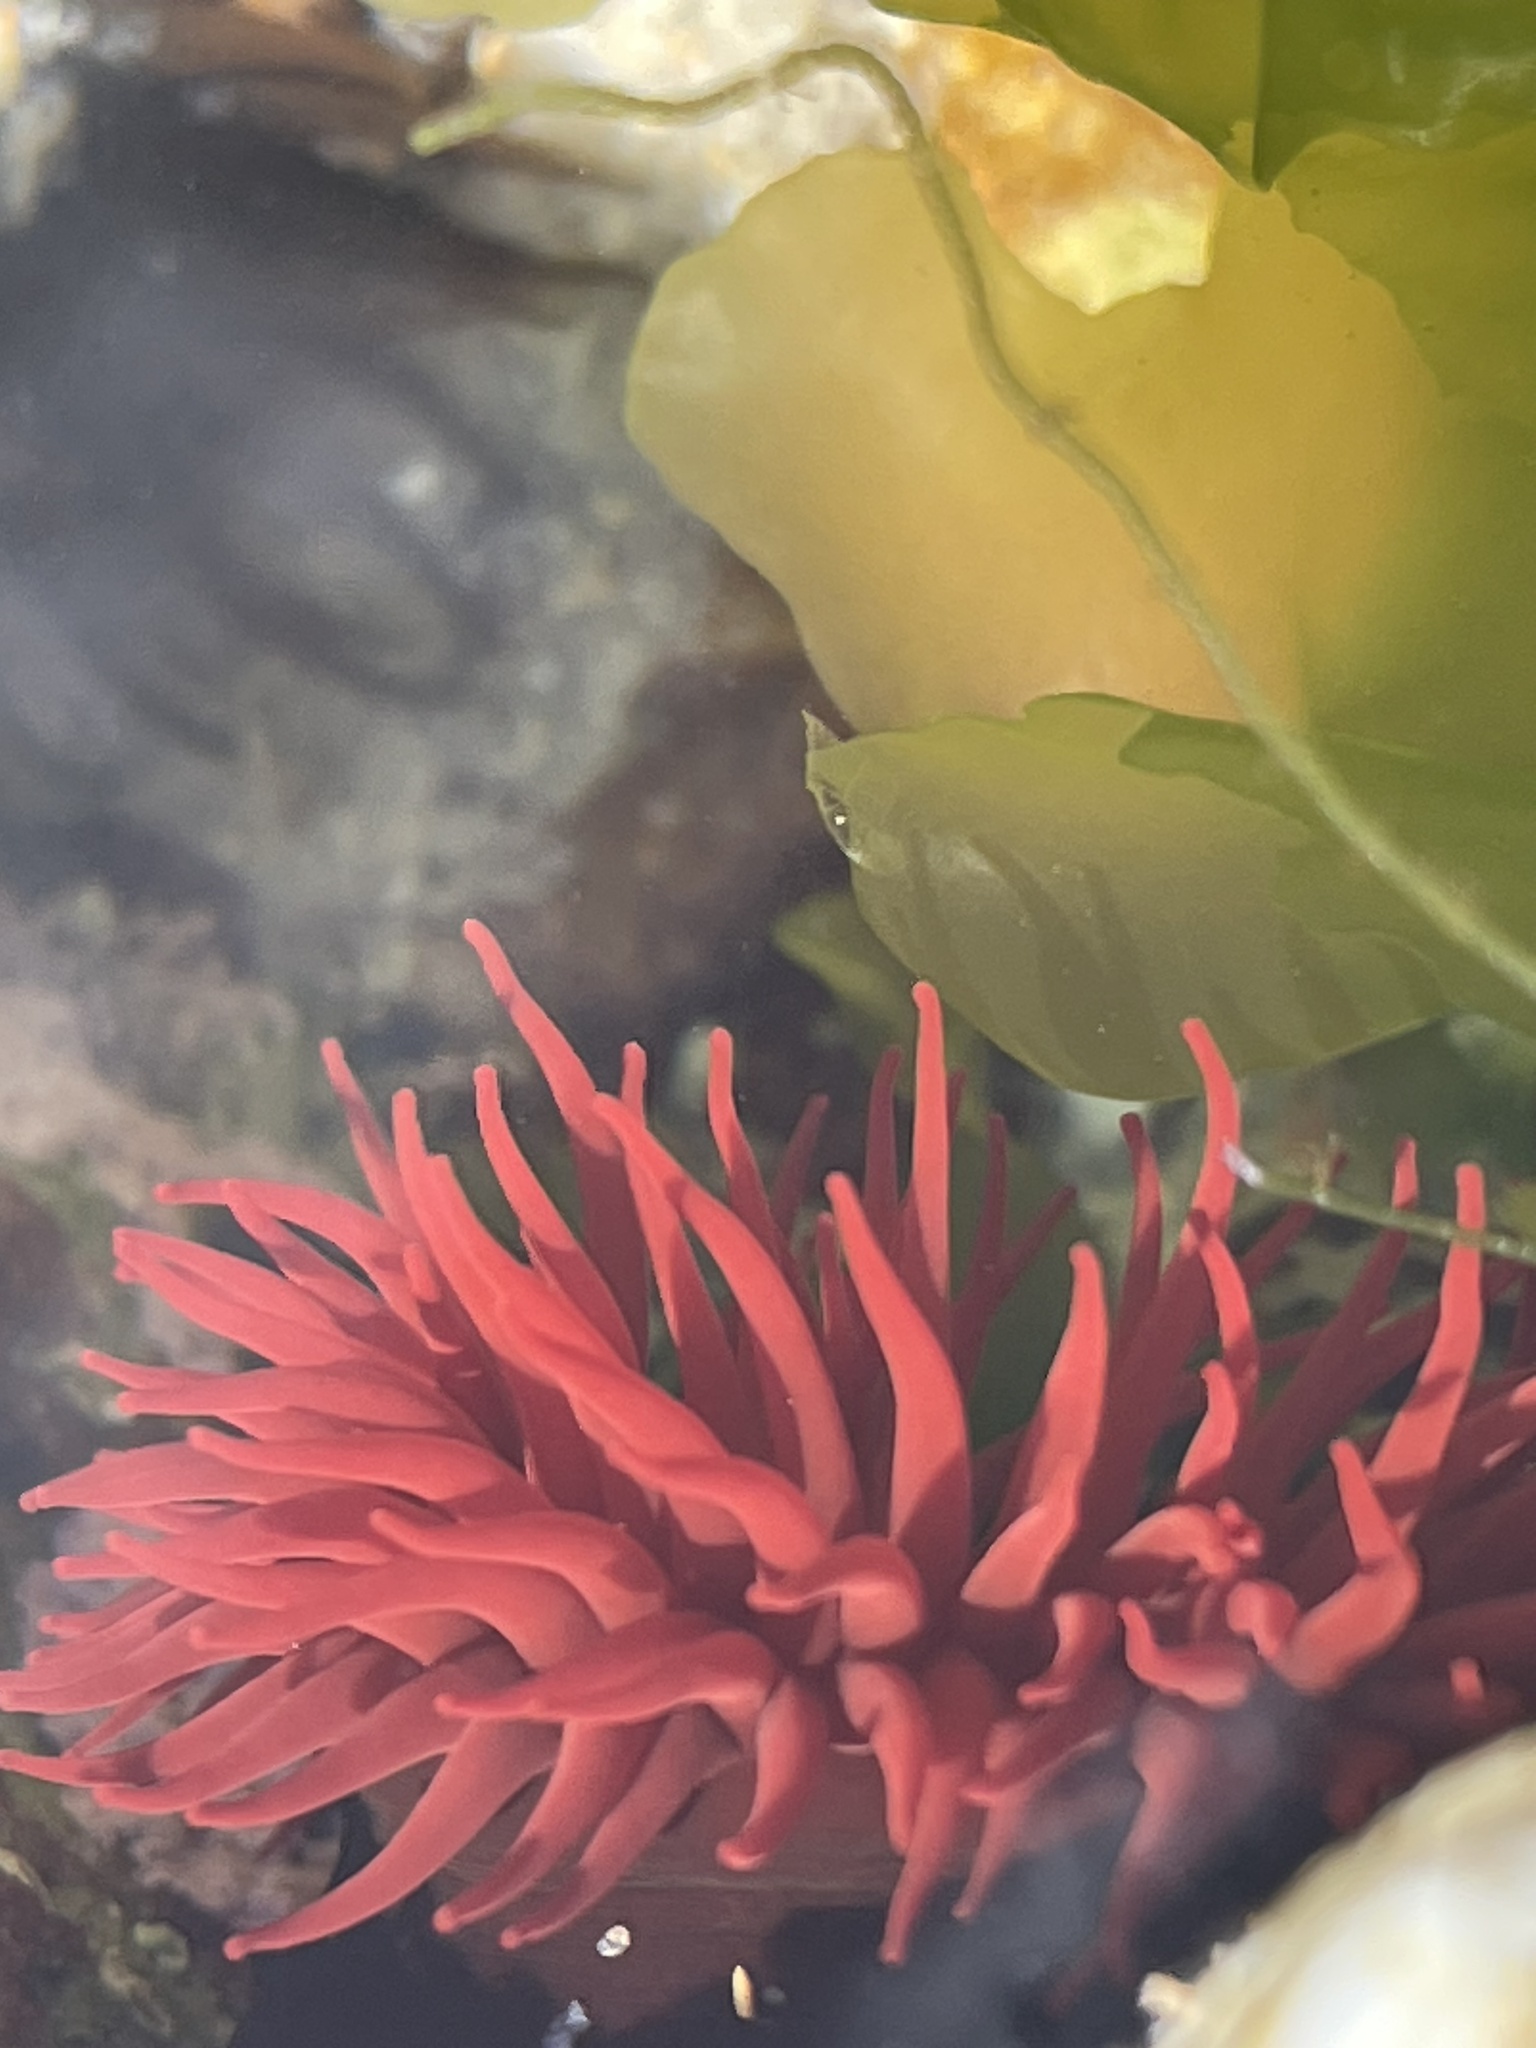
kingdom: Animalia
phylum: Cnidaria
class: Anthozoa
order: Actiniaria
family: Actiniidae
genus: Actinia
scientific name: Actinia tenebrosa
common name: Waratah anemone
